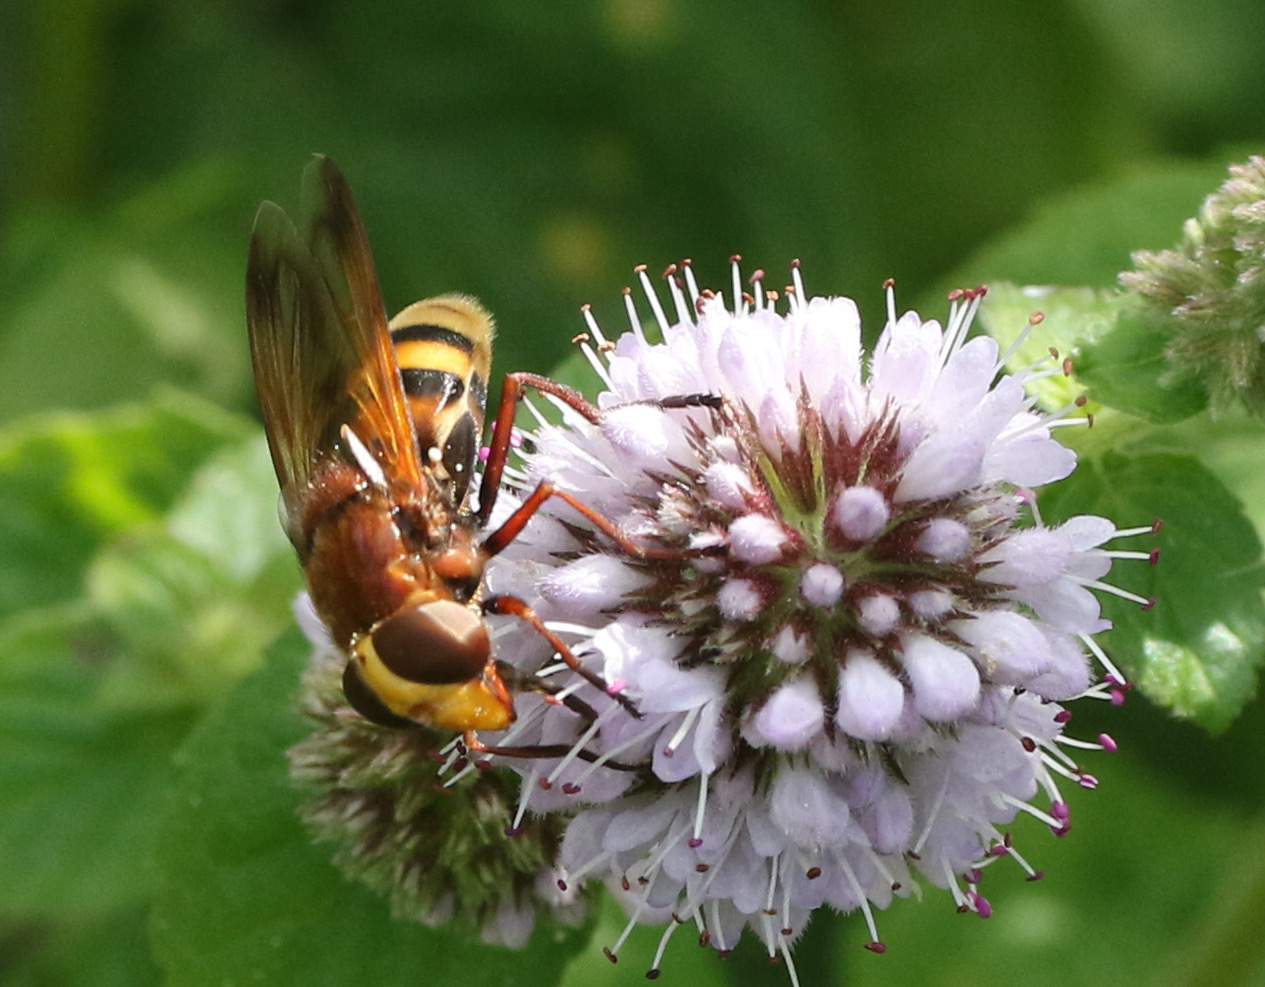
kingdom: Animalia
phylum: Arthropoda
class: Insecta
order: Diptera
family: Syrphidae
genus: Volucella
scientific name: Volucella zonaria
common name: Hornet hoverfly
